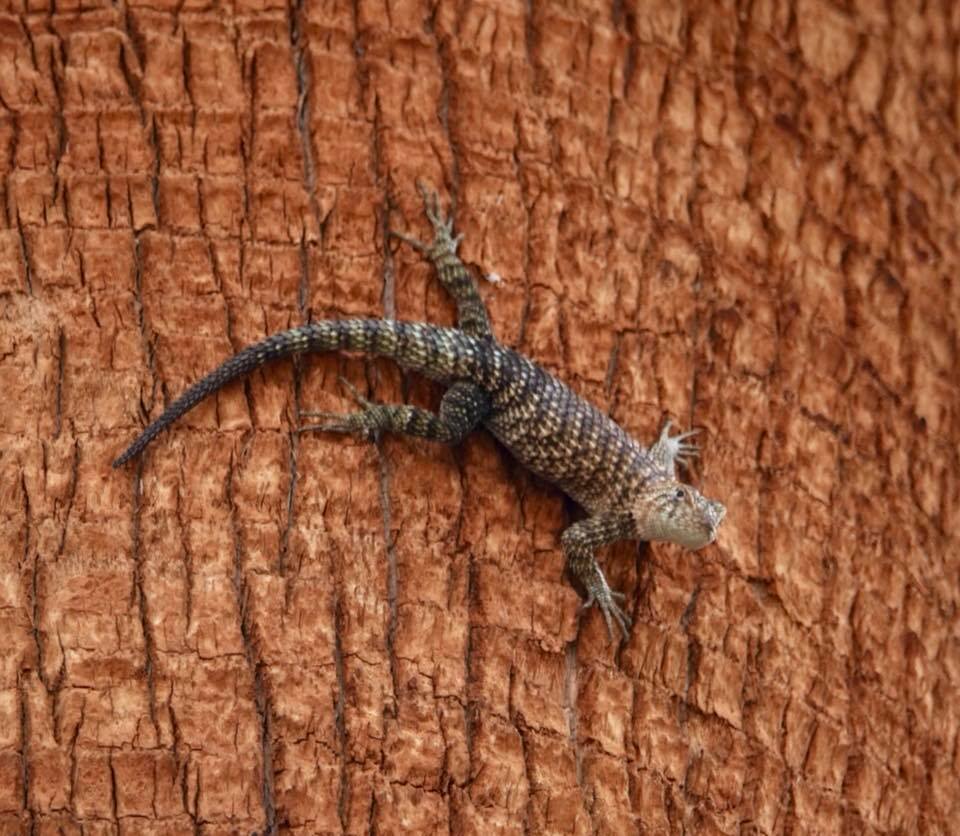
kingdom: Animalia
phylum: Chordata
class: Squamata
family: Phrynosomatidae
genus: Sceloporus
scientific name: Sceloporus orcutti
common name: Granite spiny lizard
